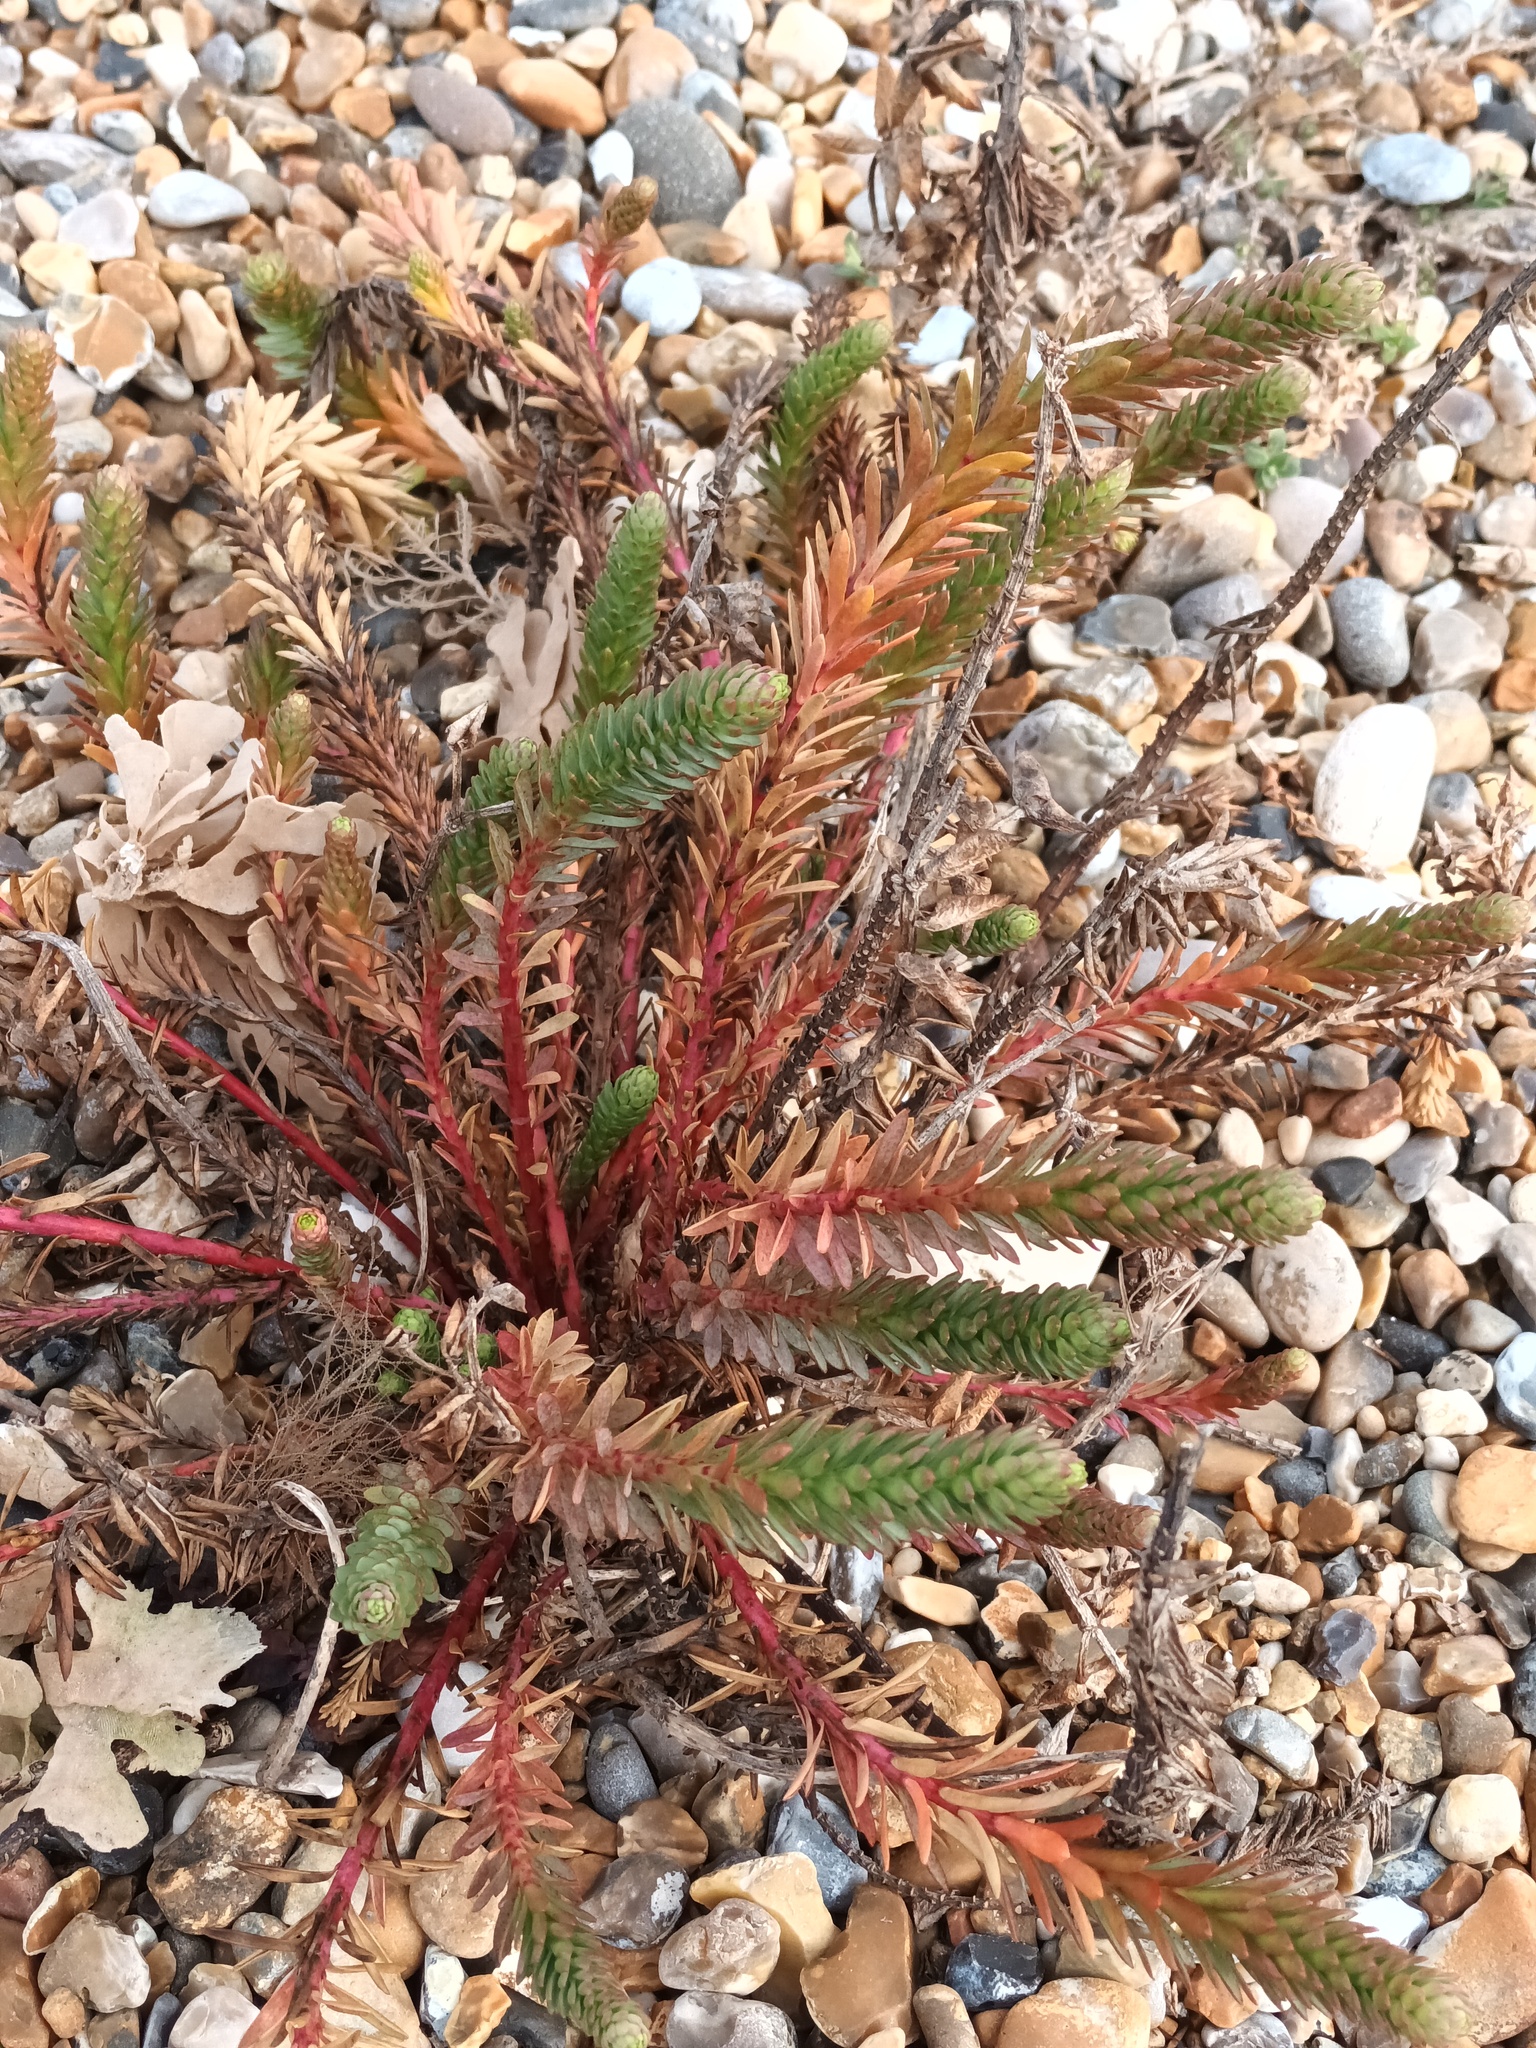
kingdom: Plantae
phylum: Tracheophyta
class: Magnoliopsida
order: Malpighiales
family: Euphorbiaceae
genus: Euphorbia
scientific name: Euphorbia paralias
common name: Sea spurge
